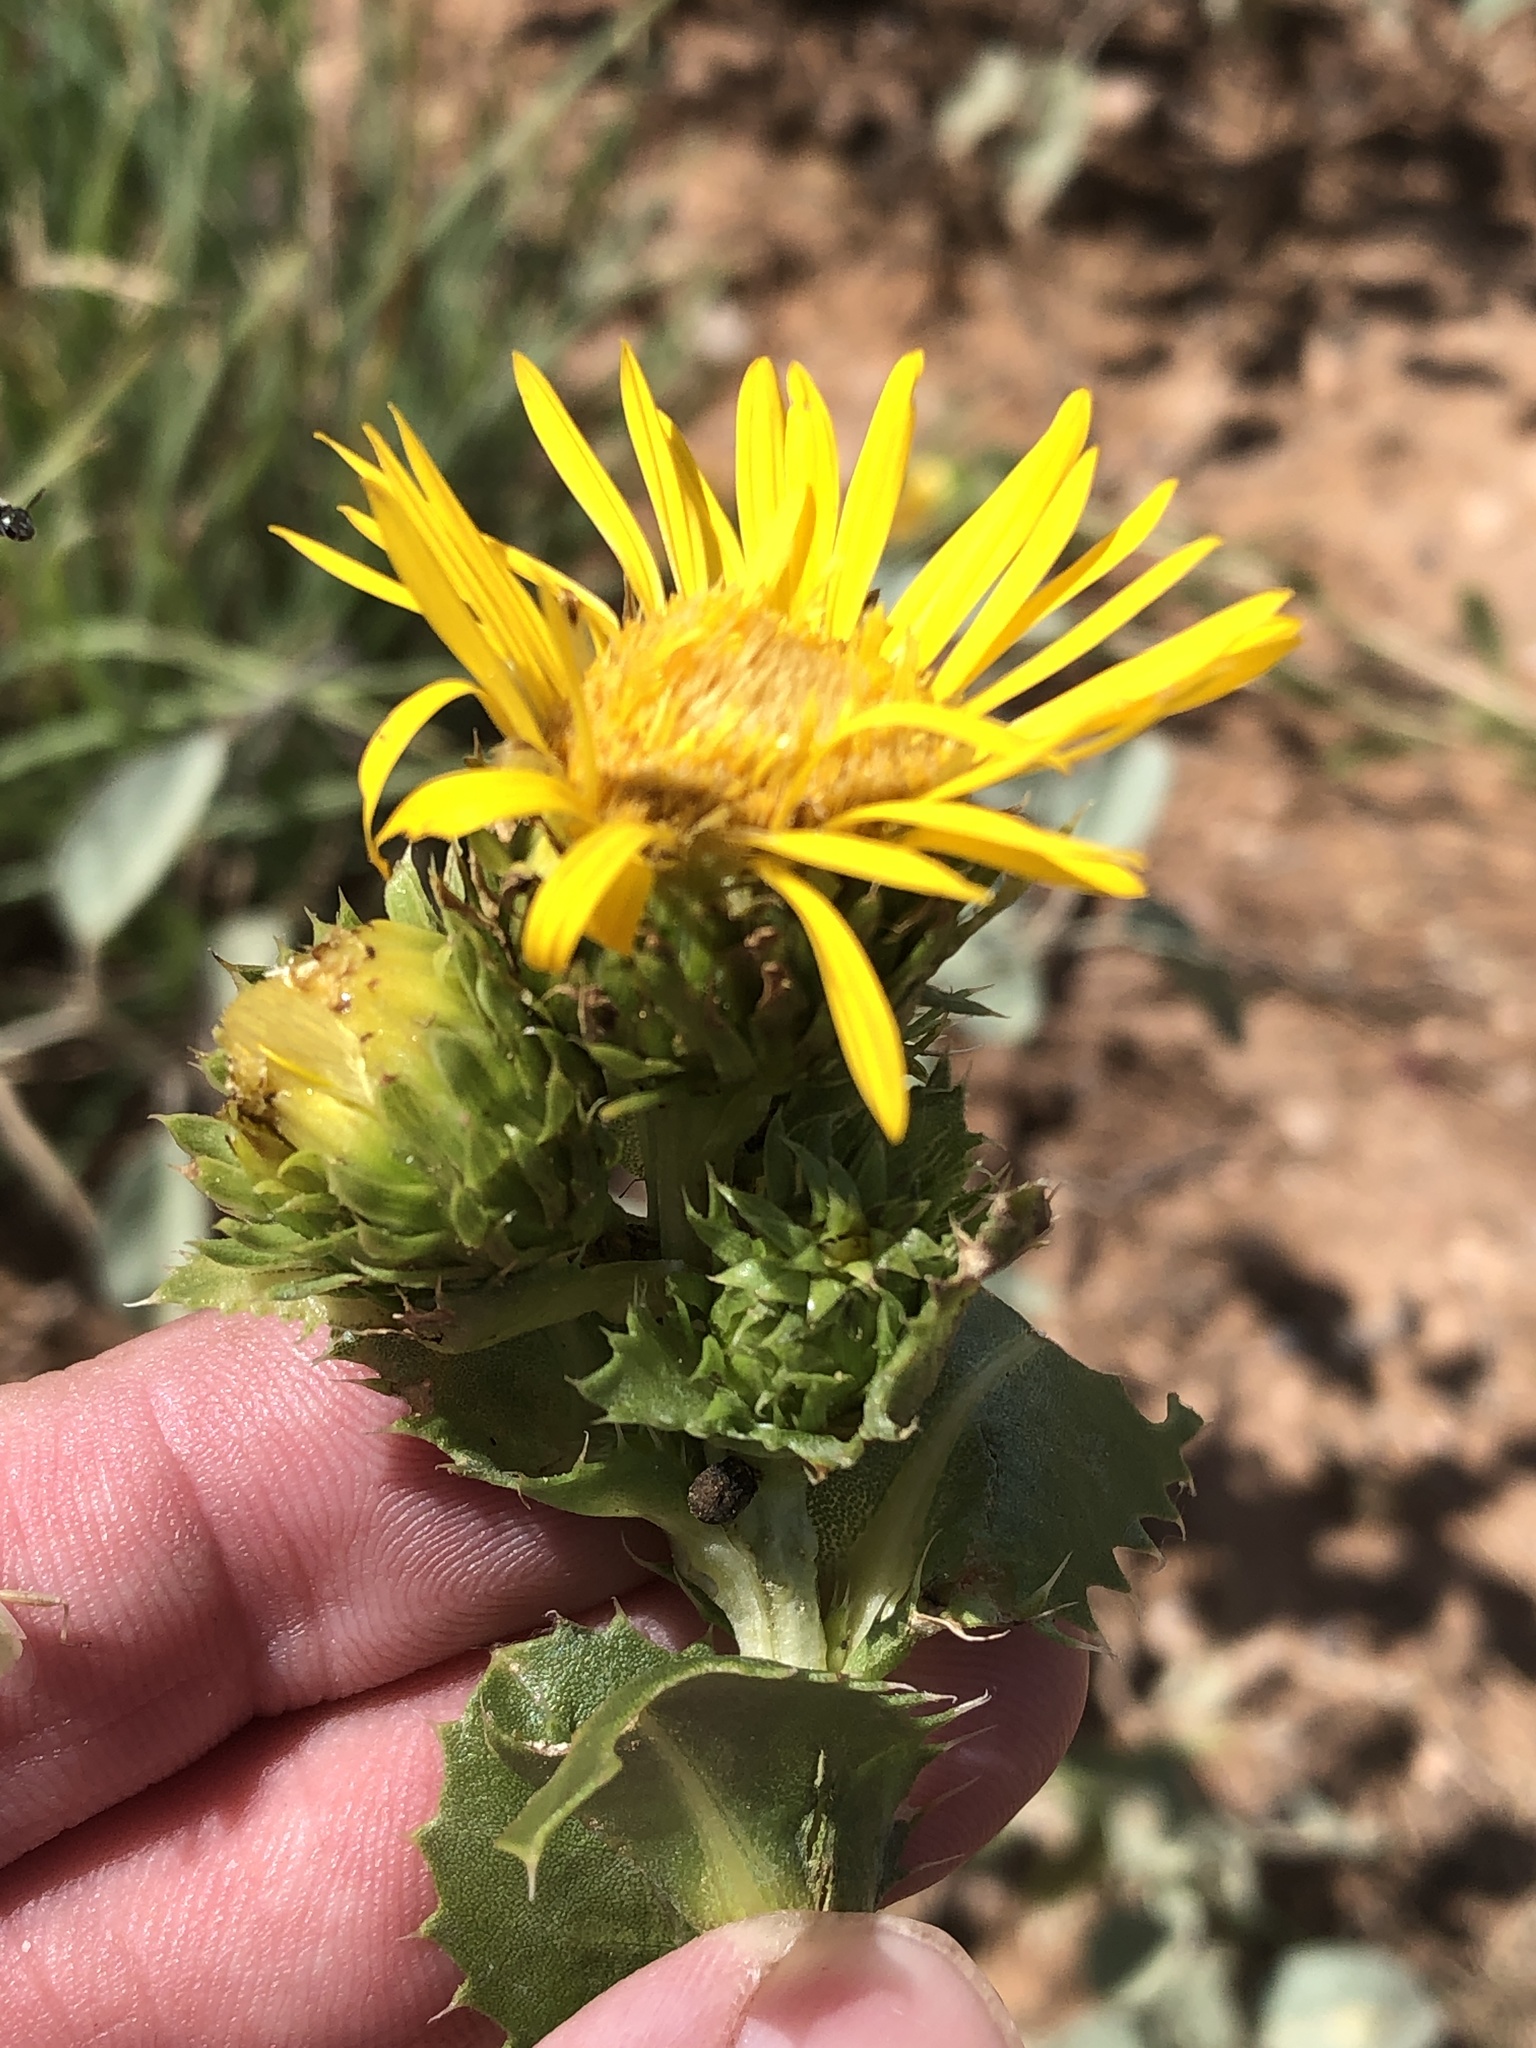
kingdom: Plantae
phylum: Tracheophyta
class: Magnoliopsida
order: Asterales
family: Asteraceae
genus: Grindelia
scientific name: Grindelia ciliata
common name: Goldenweed
